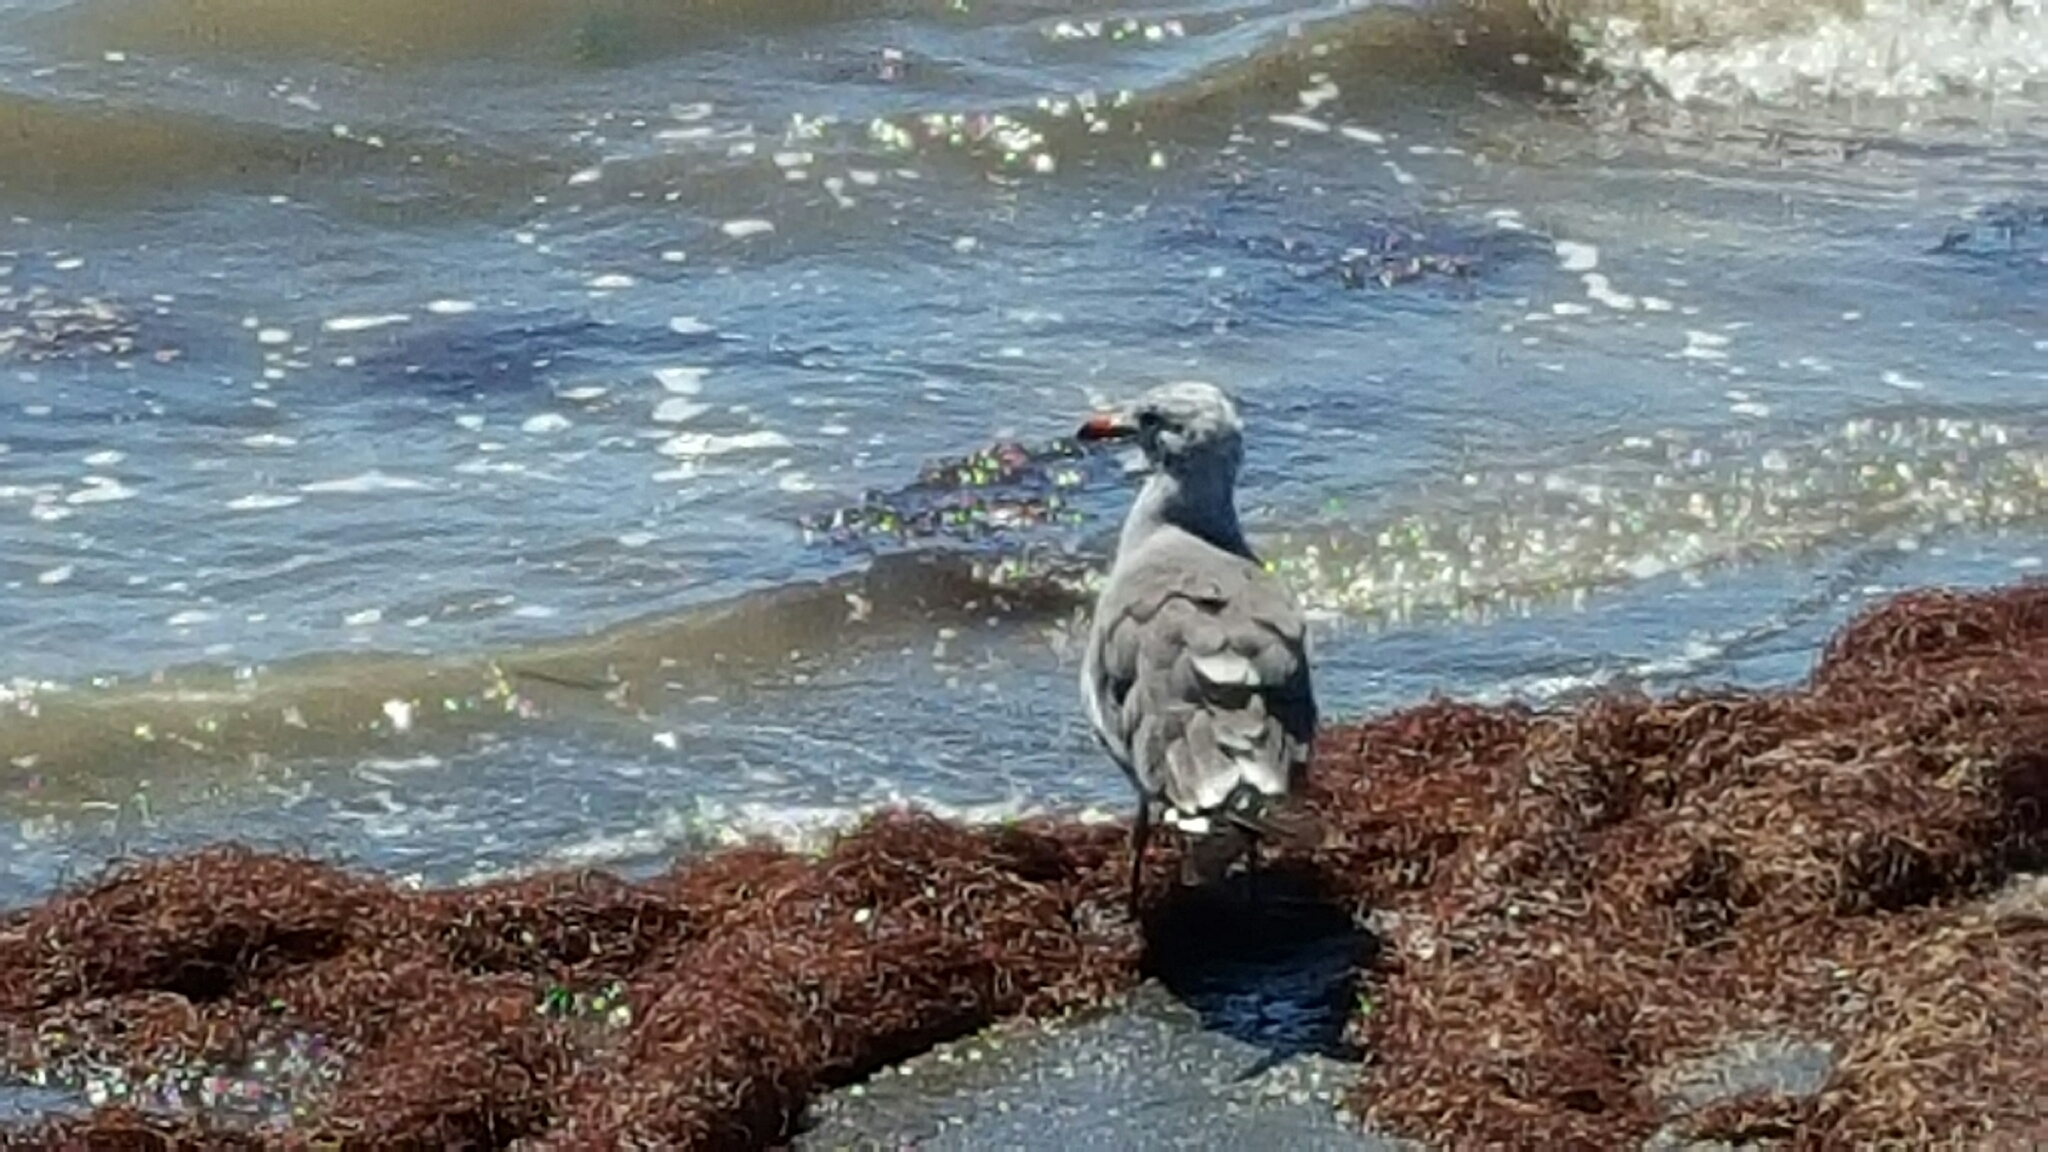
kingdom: Animalia
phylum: Chordata
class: Aves
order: Charadriiformes
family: Laridae
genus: Larus
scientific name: Larus heermanni
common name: Heermann's gull
